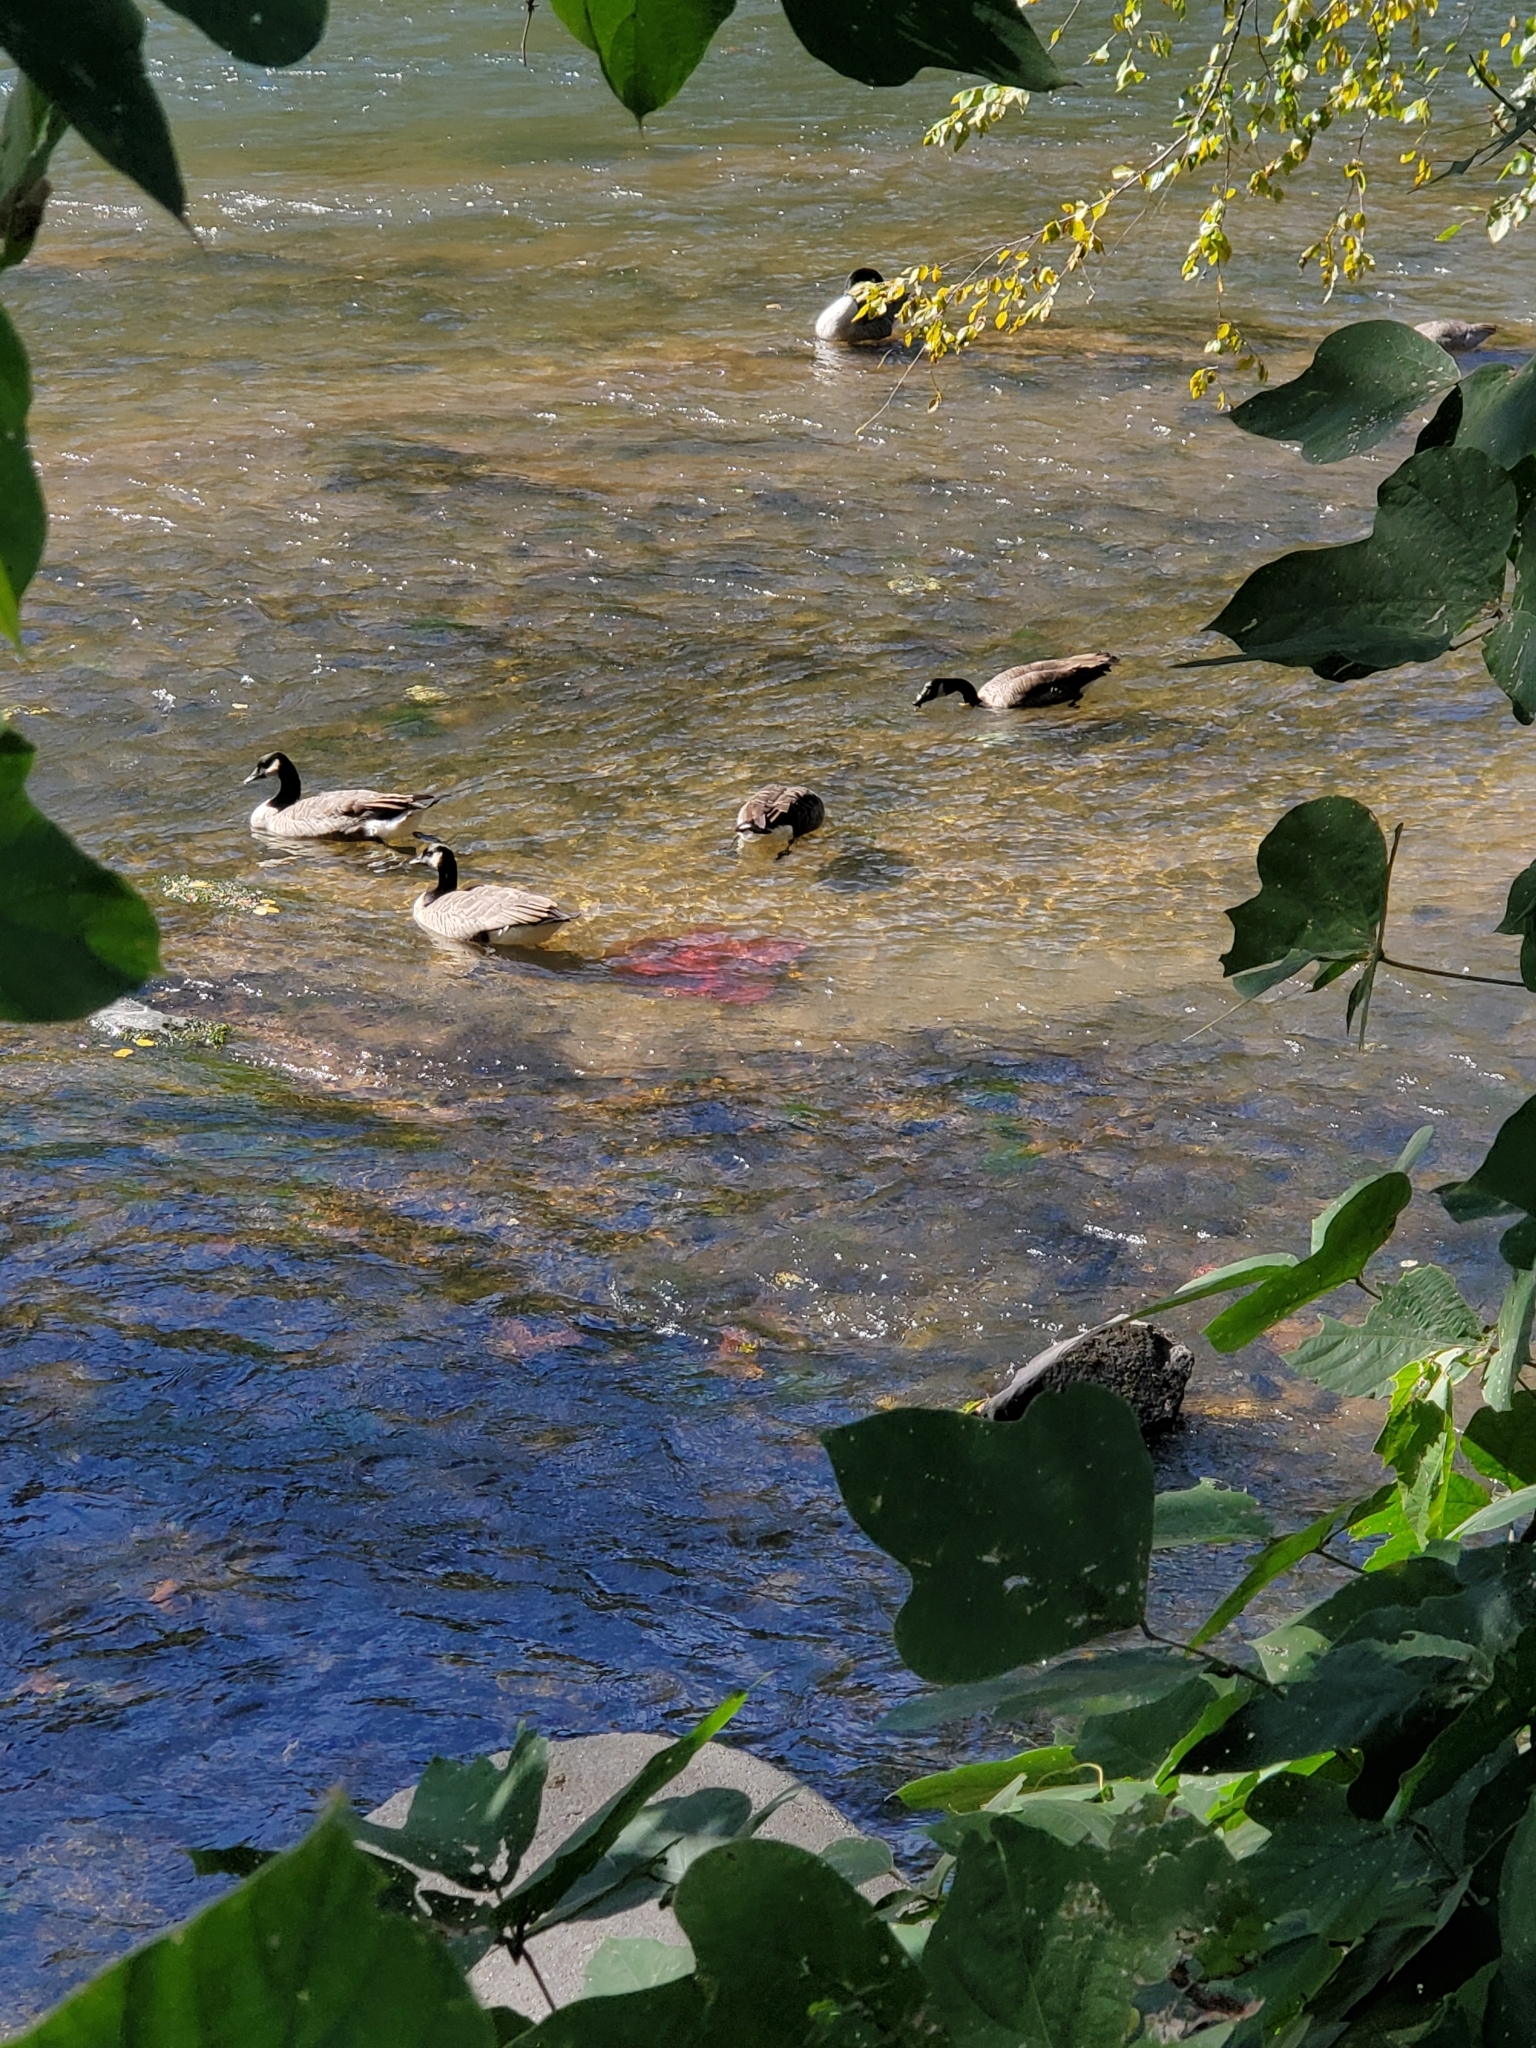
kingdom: Animalia
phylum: Chordata
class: Aves
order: Anseriformes
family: Anatidae
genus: Branta
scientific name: Branta canadensis
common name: Canada goose
